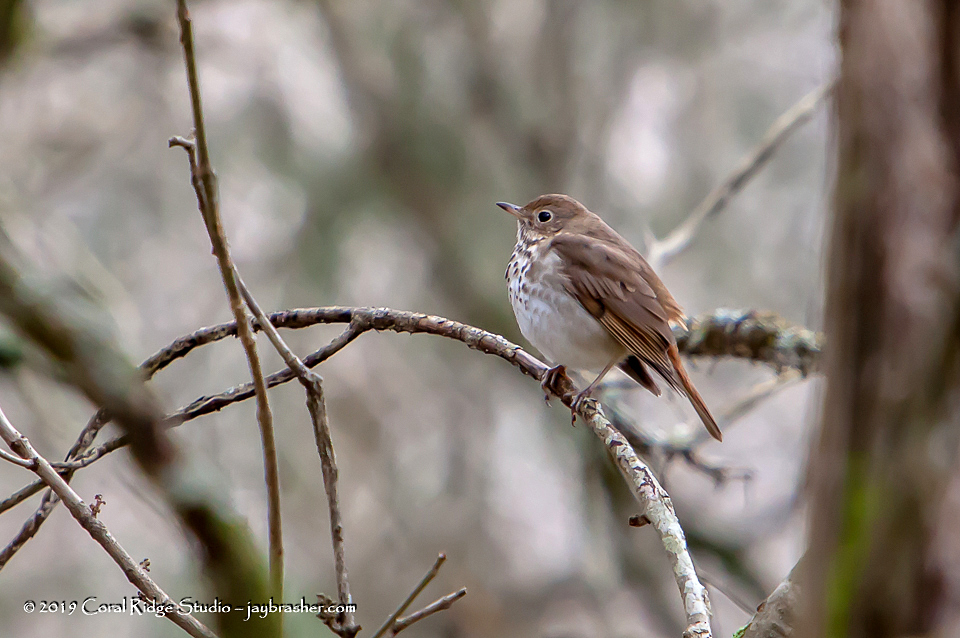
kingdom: Animalia
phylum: Chordata
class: Aves
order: Passeriformes
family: Turdidae
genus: Catharus
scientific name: Catharus guttatus
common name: Hermit thrush
